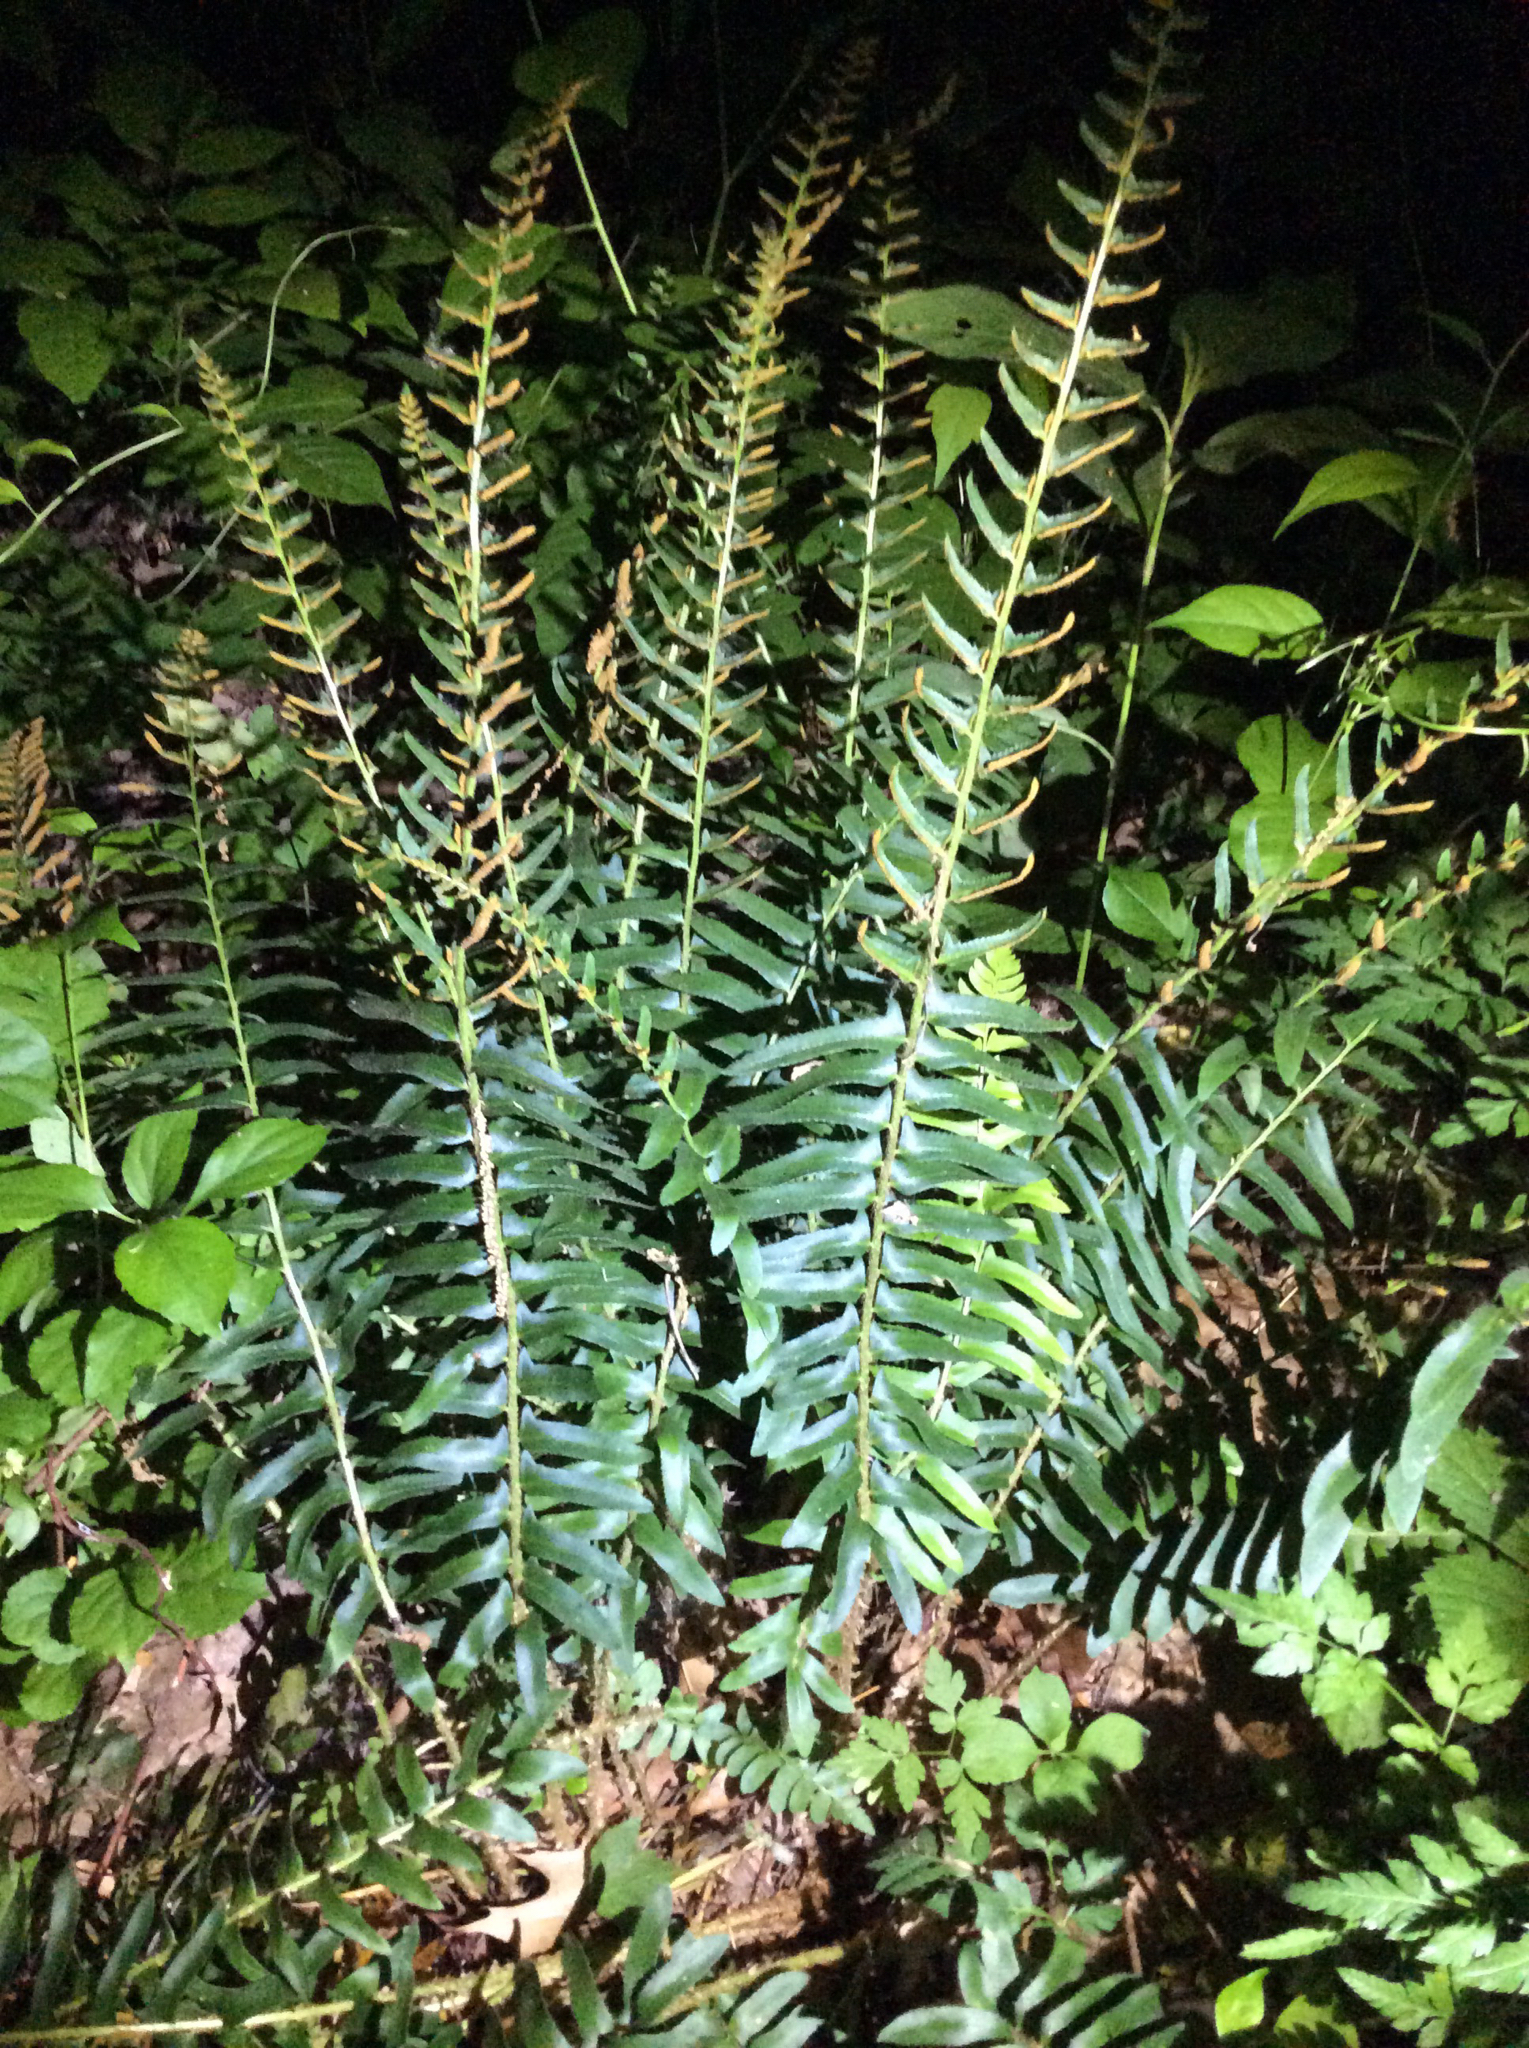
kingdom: Plantae
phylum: Tracheophyta
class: Polypodiopsida
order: Polypodiales
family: Dryopteridaceae
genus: Polystichum
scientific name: Polystichum acrostichoides
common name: Christmas fern
